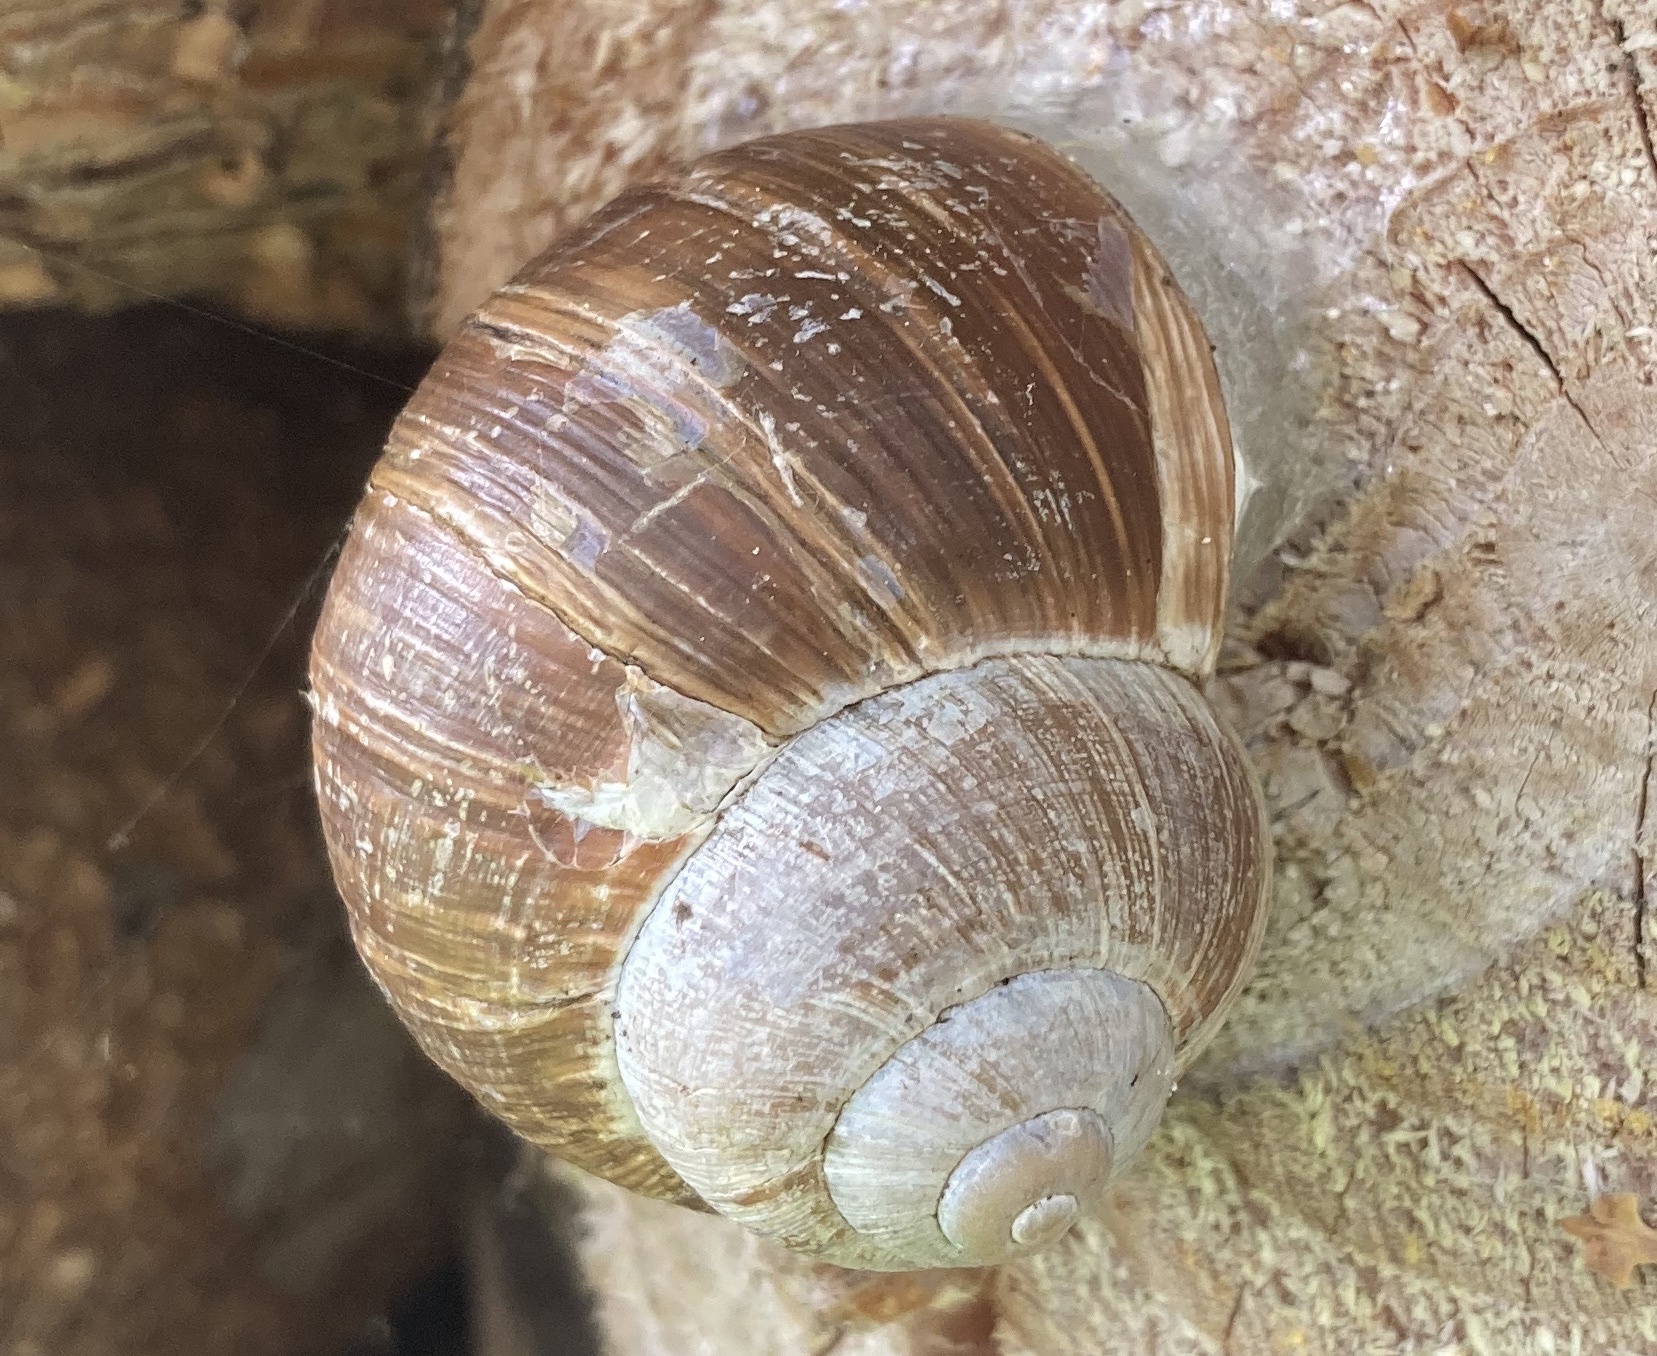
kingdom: Animalia
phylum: Mollusca
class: Gastropoda
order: Stylommatophora
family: Helicidae
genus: Helix
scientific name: Helix pomatia
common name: Roman snail
